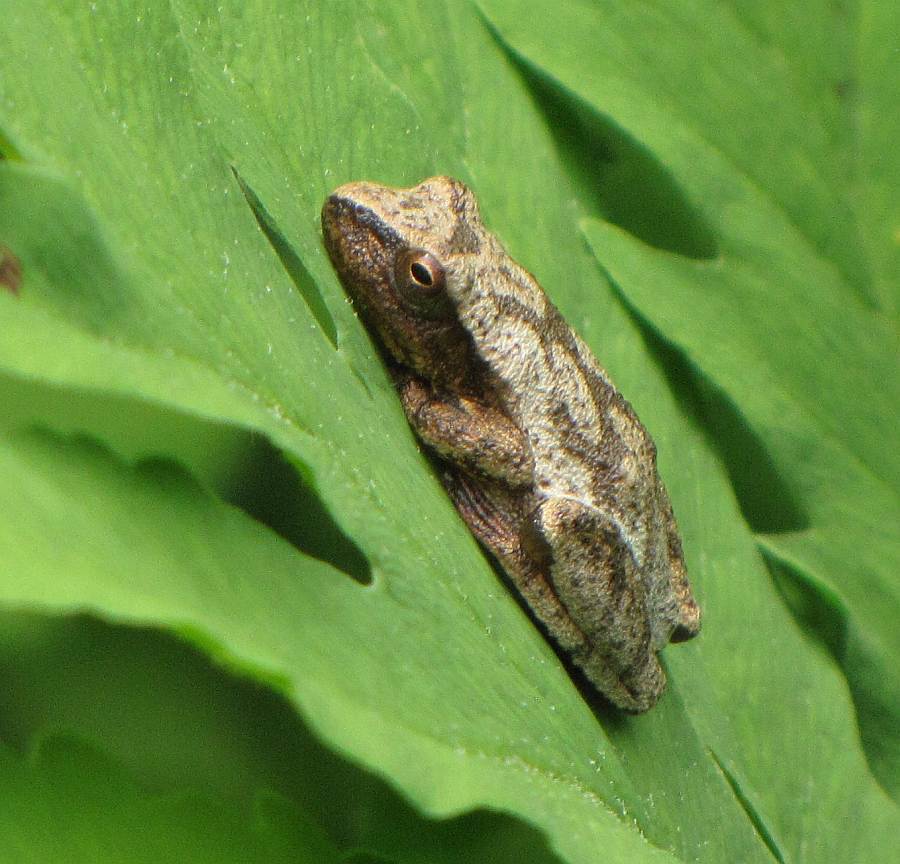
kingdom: Animalia
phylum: Chordata
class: Amphibia
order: Anura
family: Hylidae
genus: Pseudacris
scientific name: Pseudacris crucifer
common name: Spring peeper
